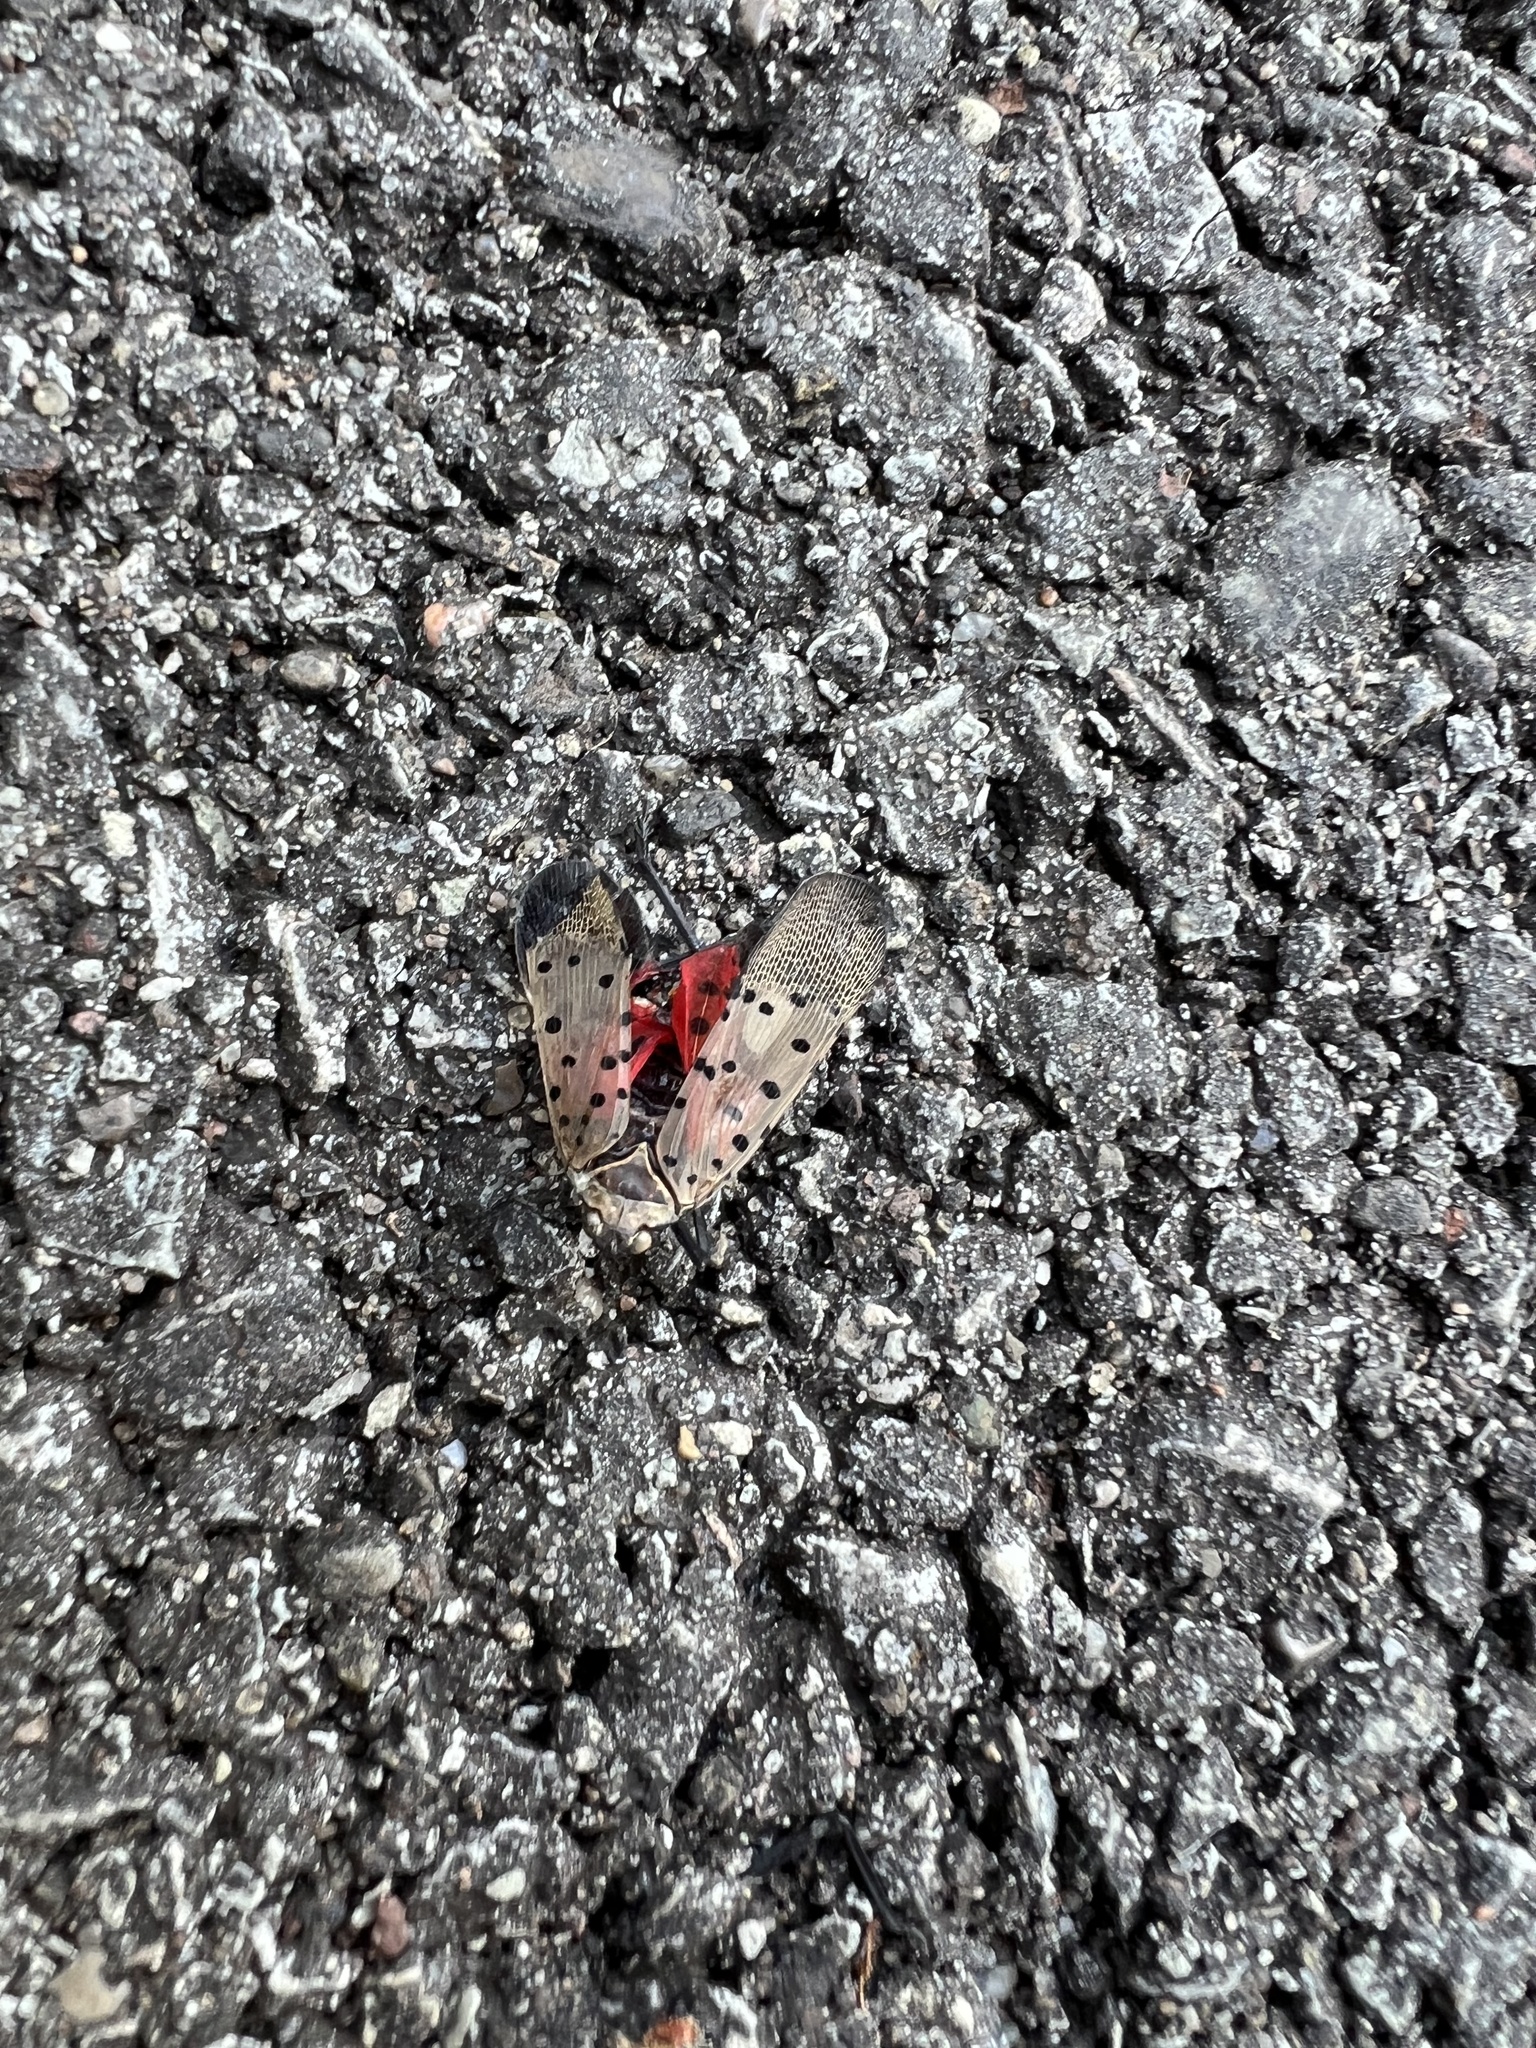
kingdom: Animalia
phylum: Arthropoda
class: Insecta
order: Hemiptera
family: Fulgoridae
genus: Lycorma
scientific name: Lycorma delicatula
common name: Spotted lanternfly
